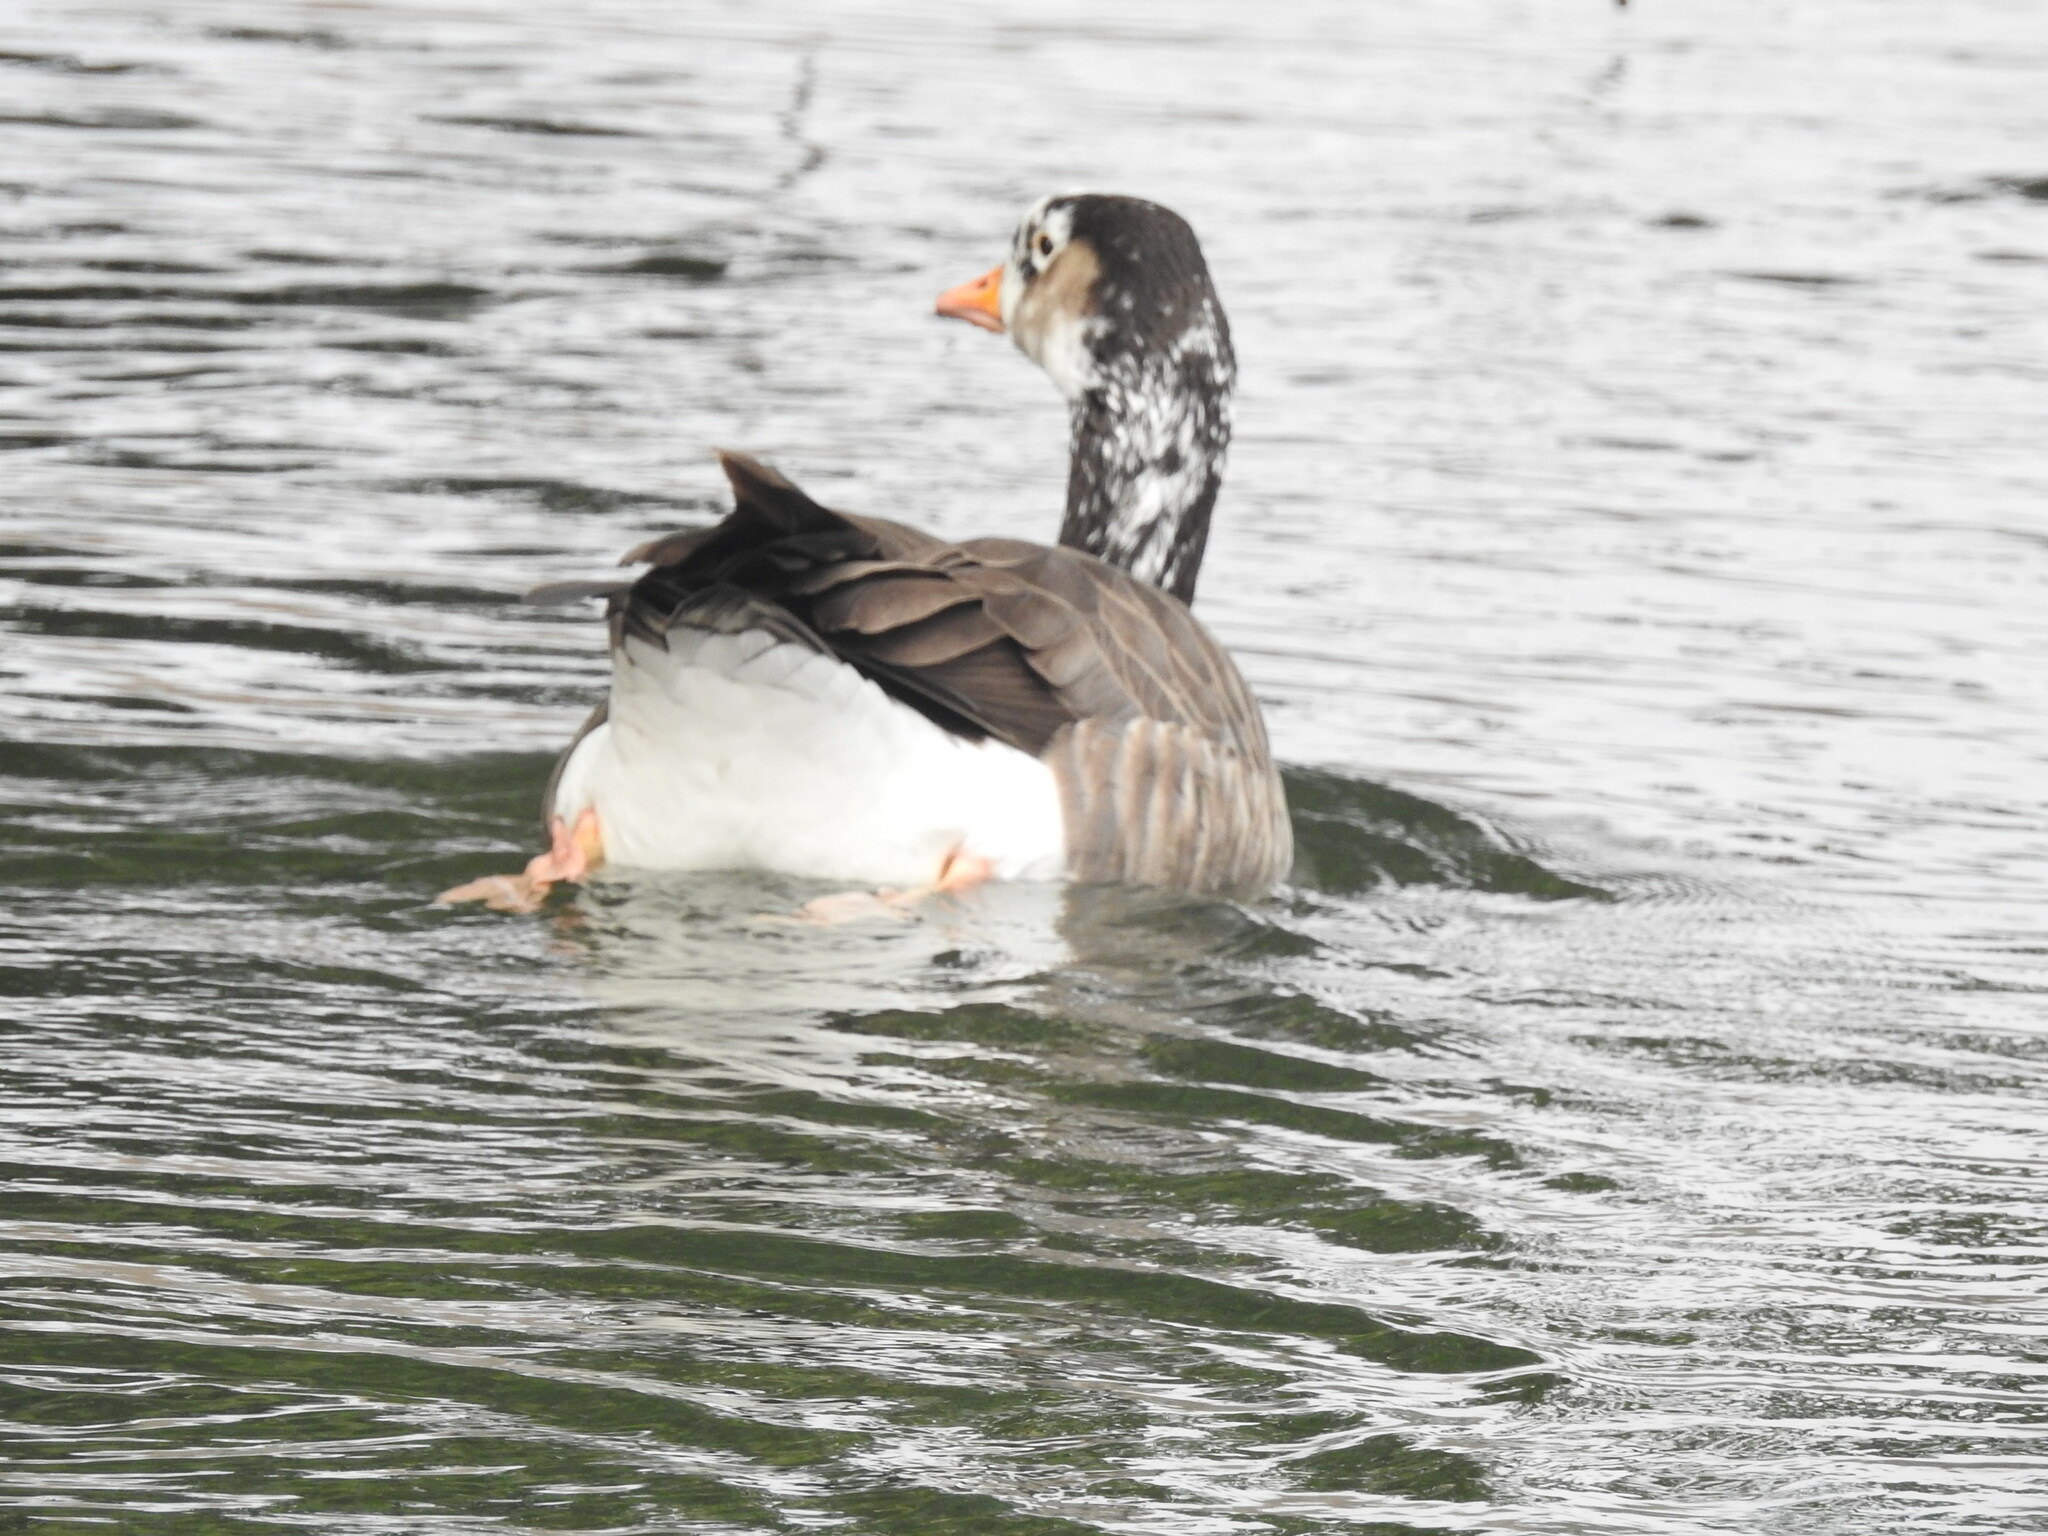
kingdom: Animalia
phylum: Chordata
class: Aves
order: Anseriformes
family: Anatidae
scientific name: Anatidae
